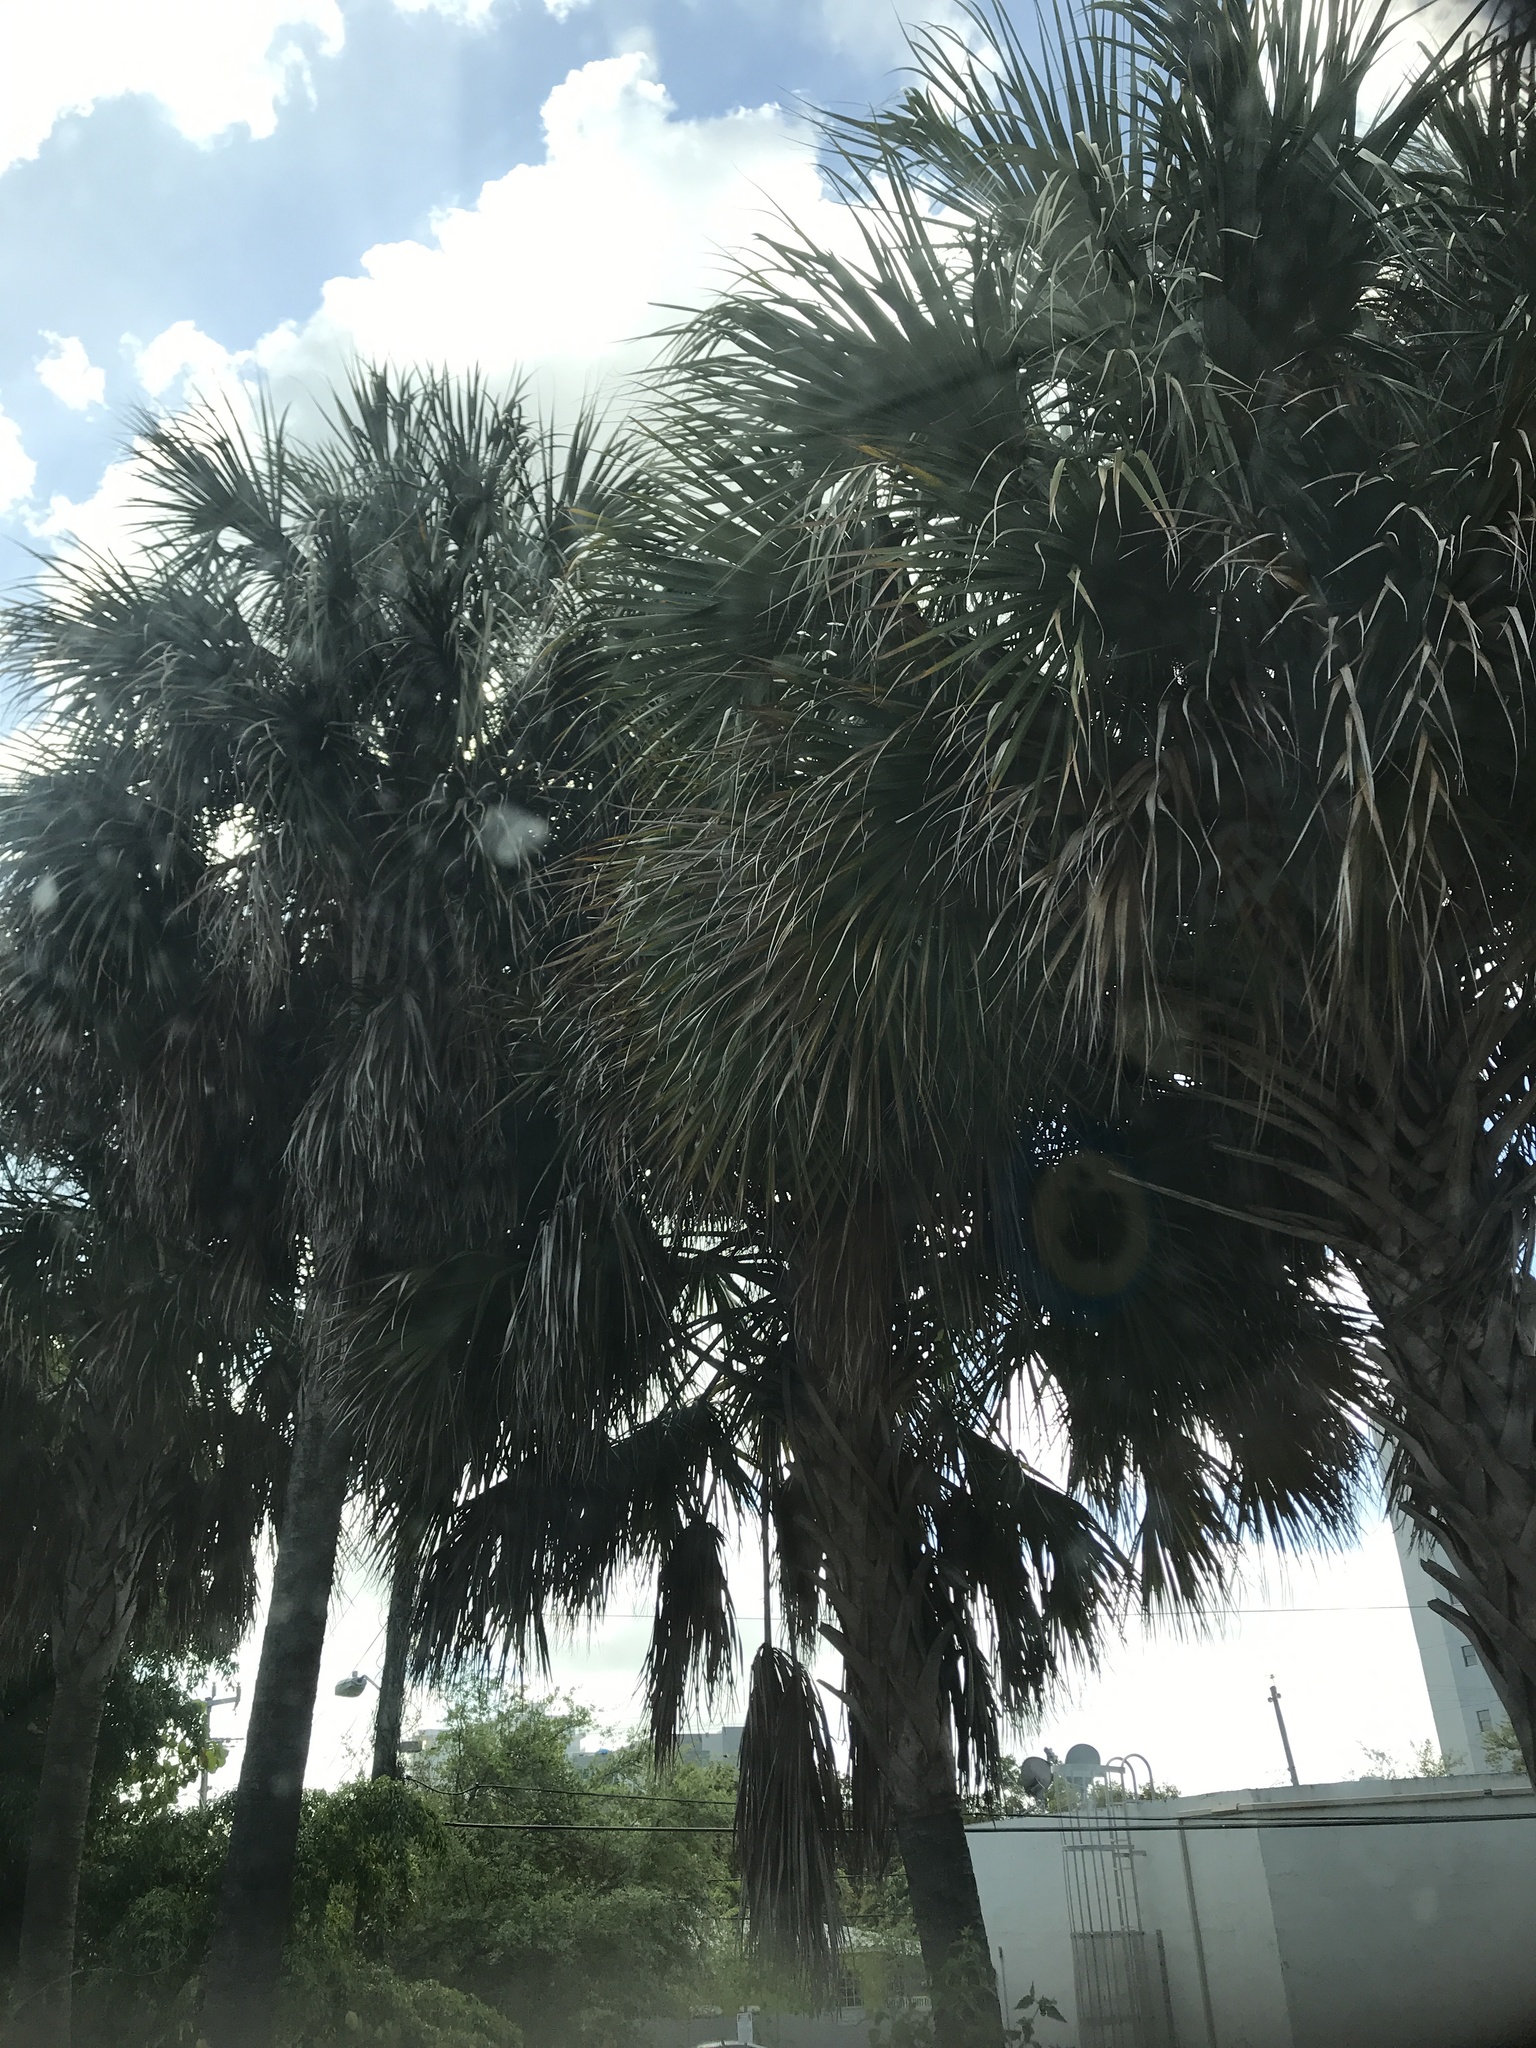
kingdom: Plantae
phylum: Tracheophyta
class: Liliopsida
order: Arecales
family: Arecaceae
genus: Sabal
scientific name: Sabal palmetto
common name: Blue palmetto
